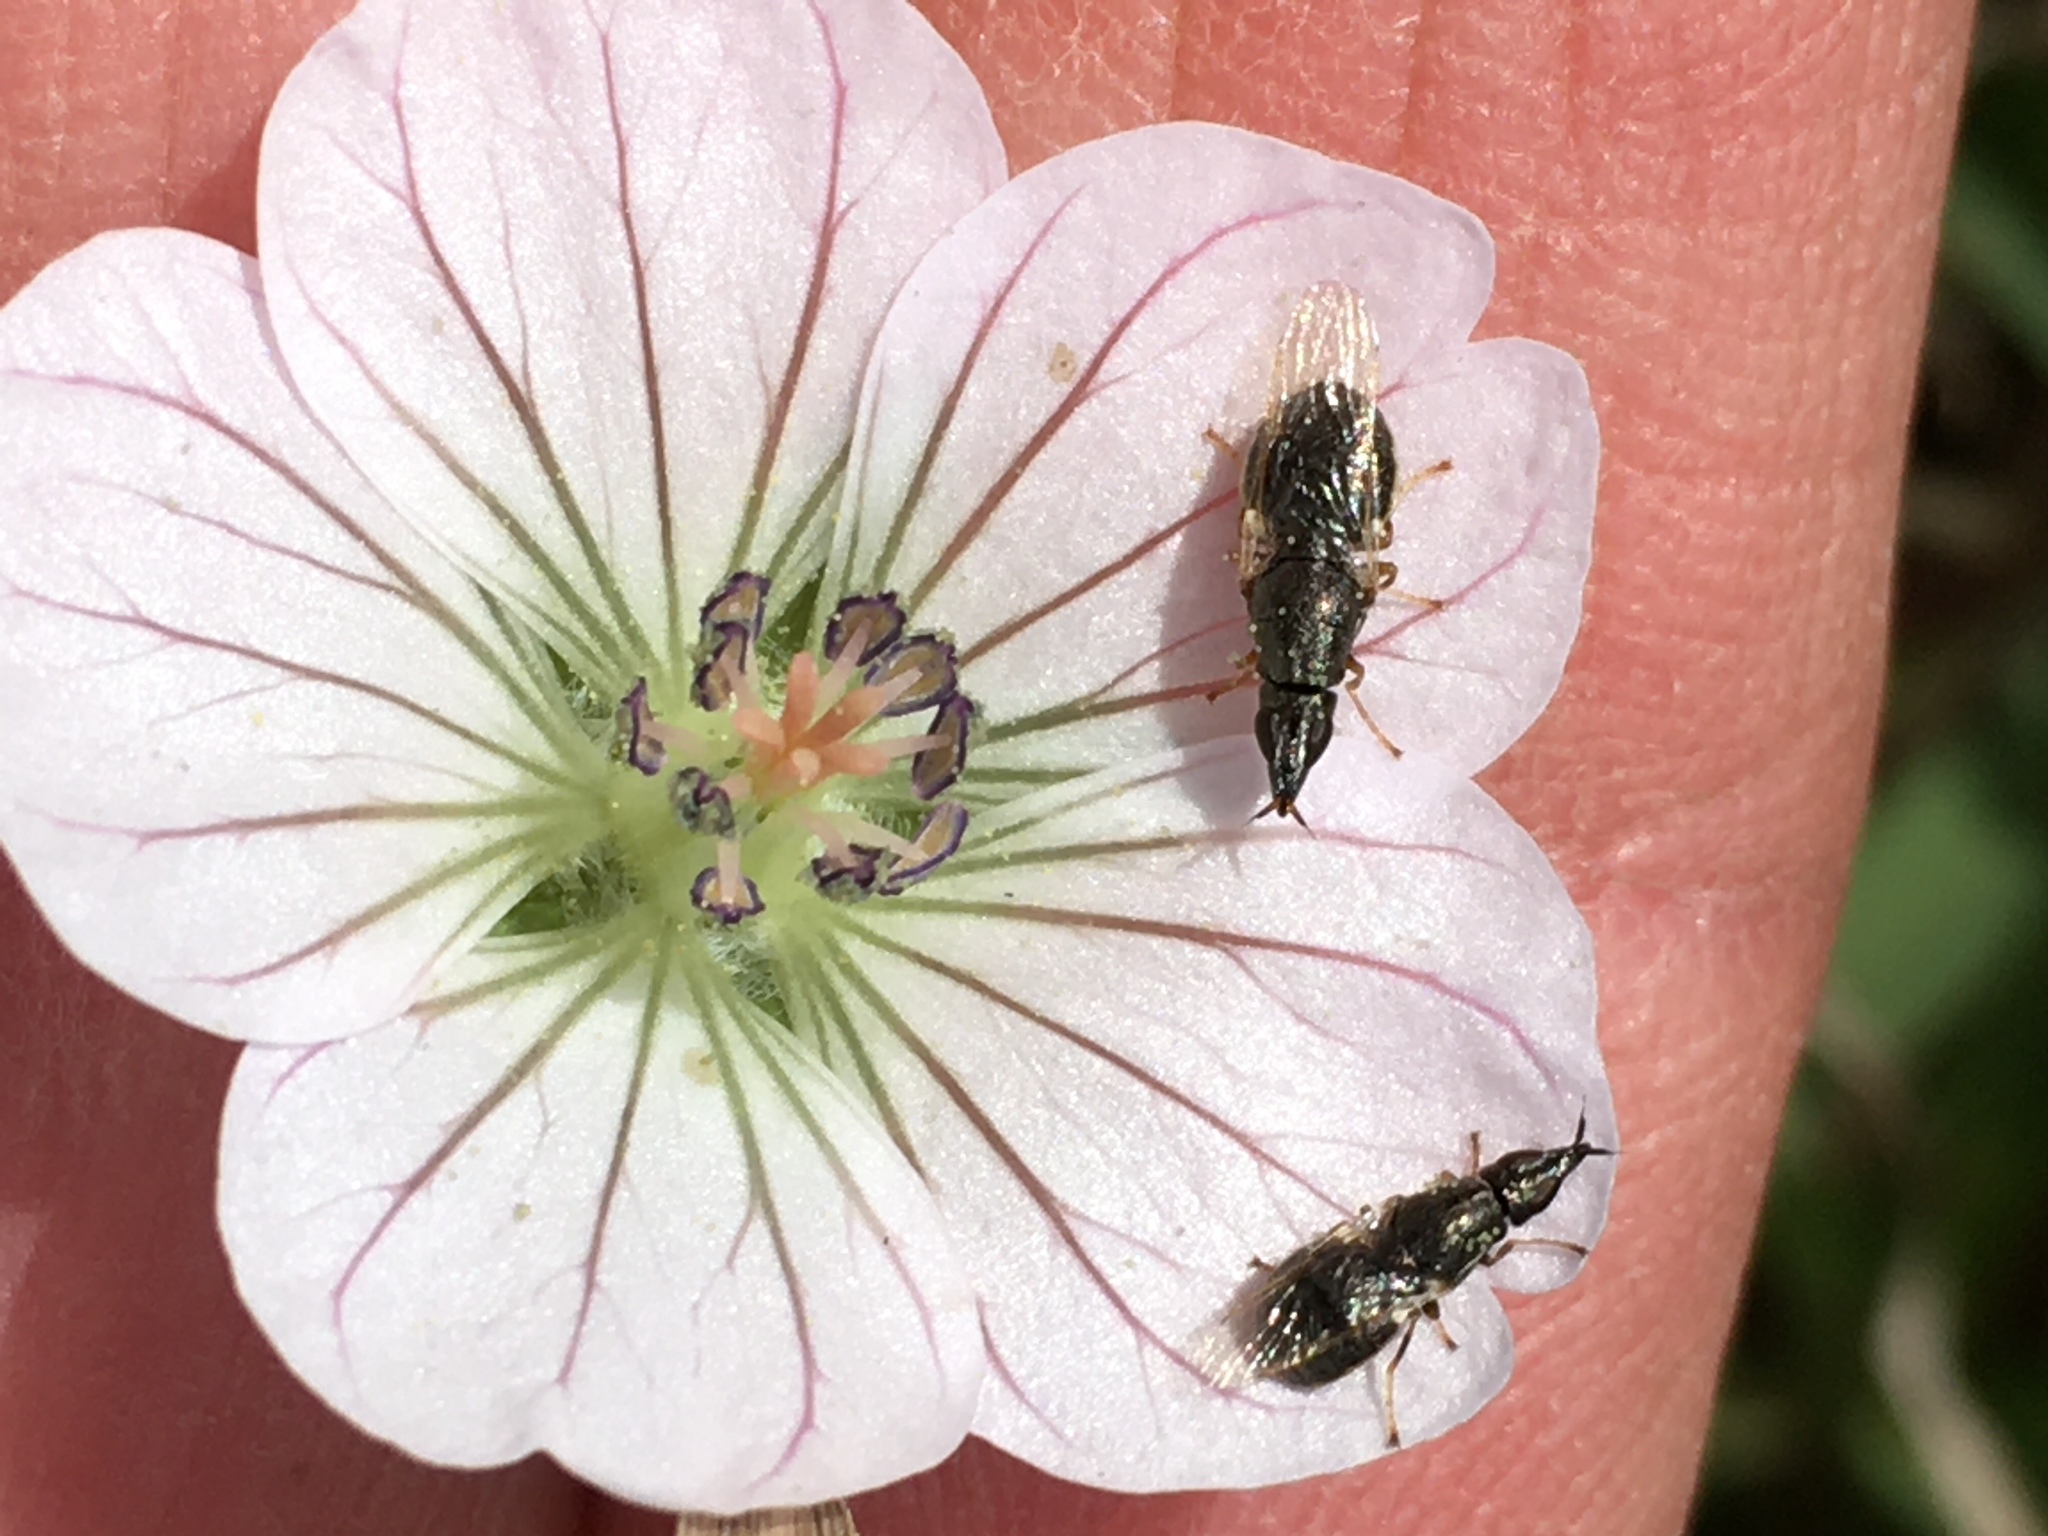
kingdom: Plantae
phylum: Tracheophyta
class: Magnoliopsida
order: Geraniales
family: Geraniaceae
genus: Geranium
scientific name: Geranium incanum
